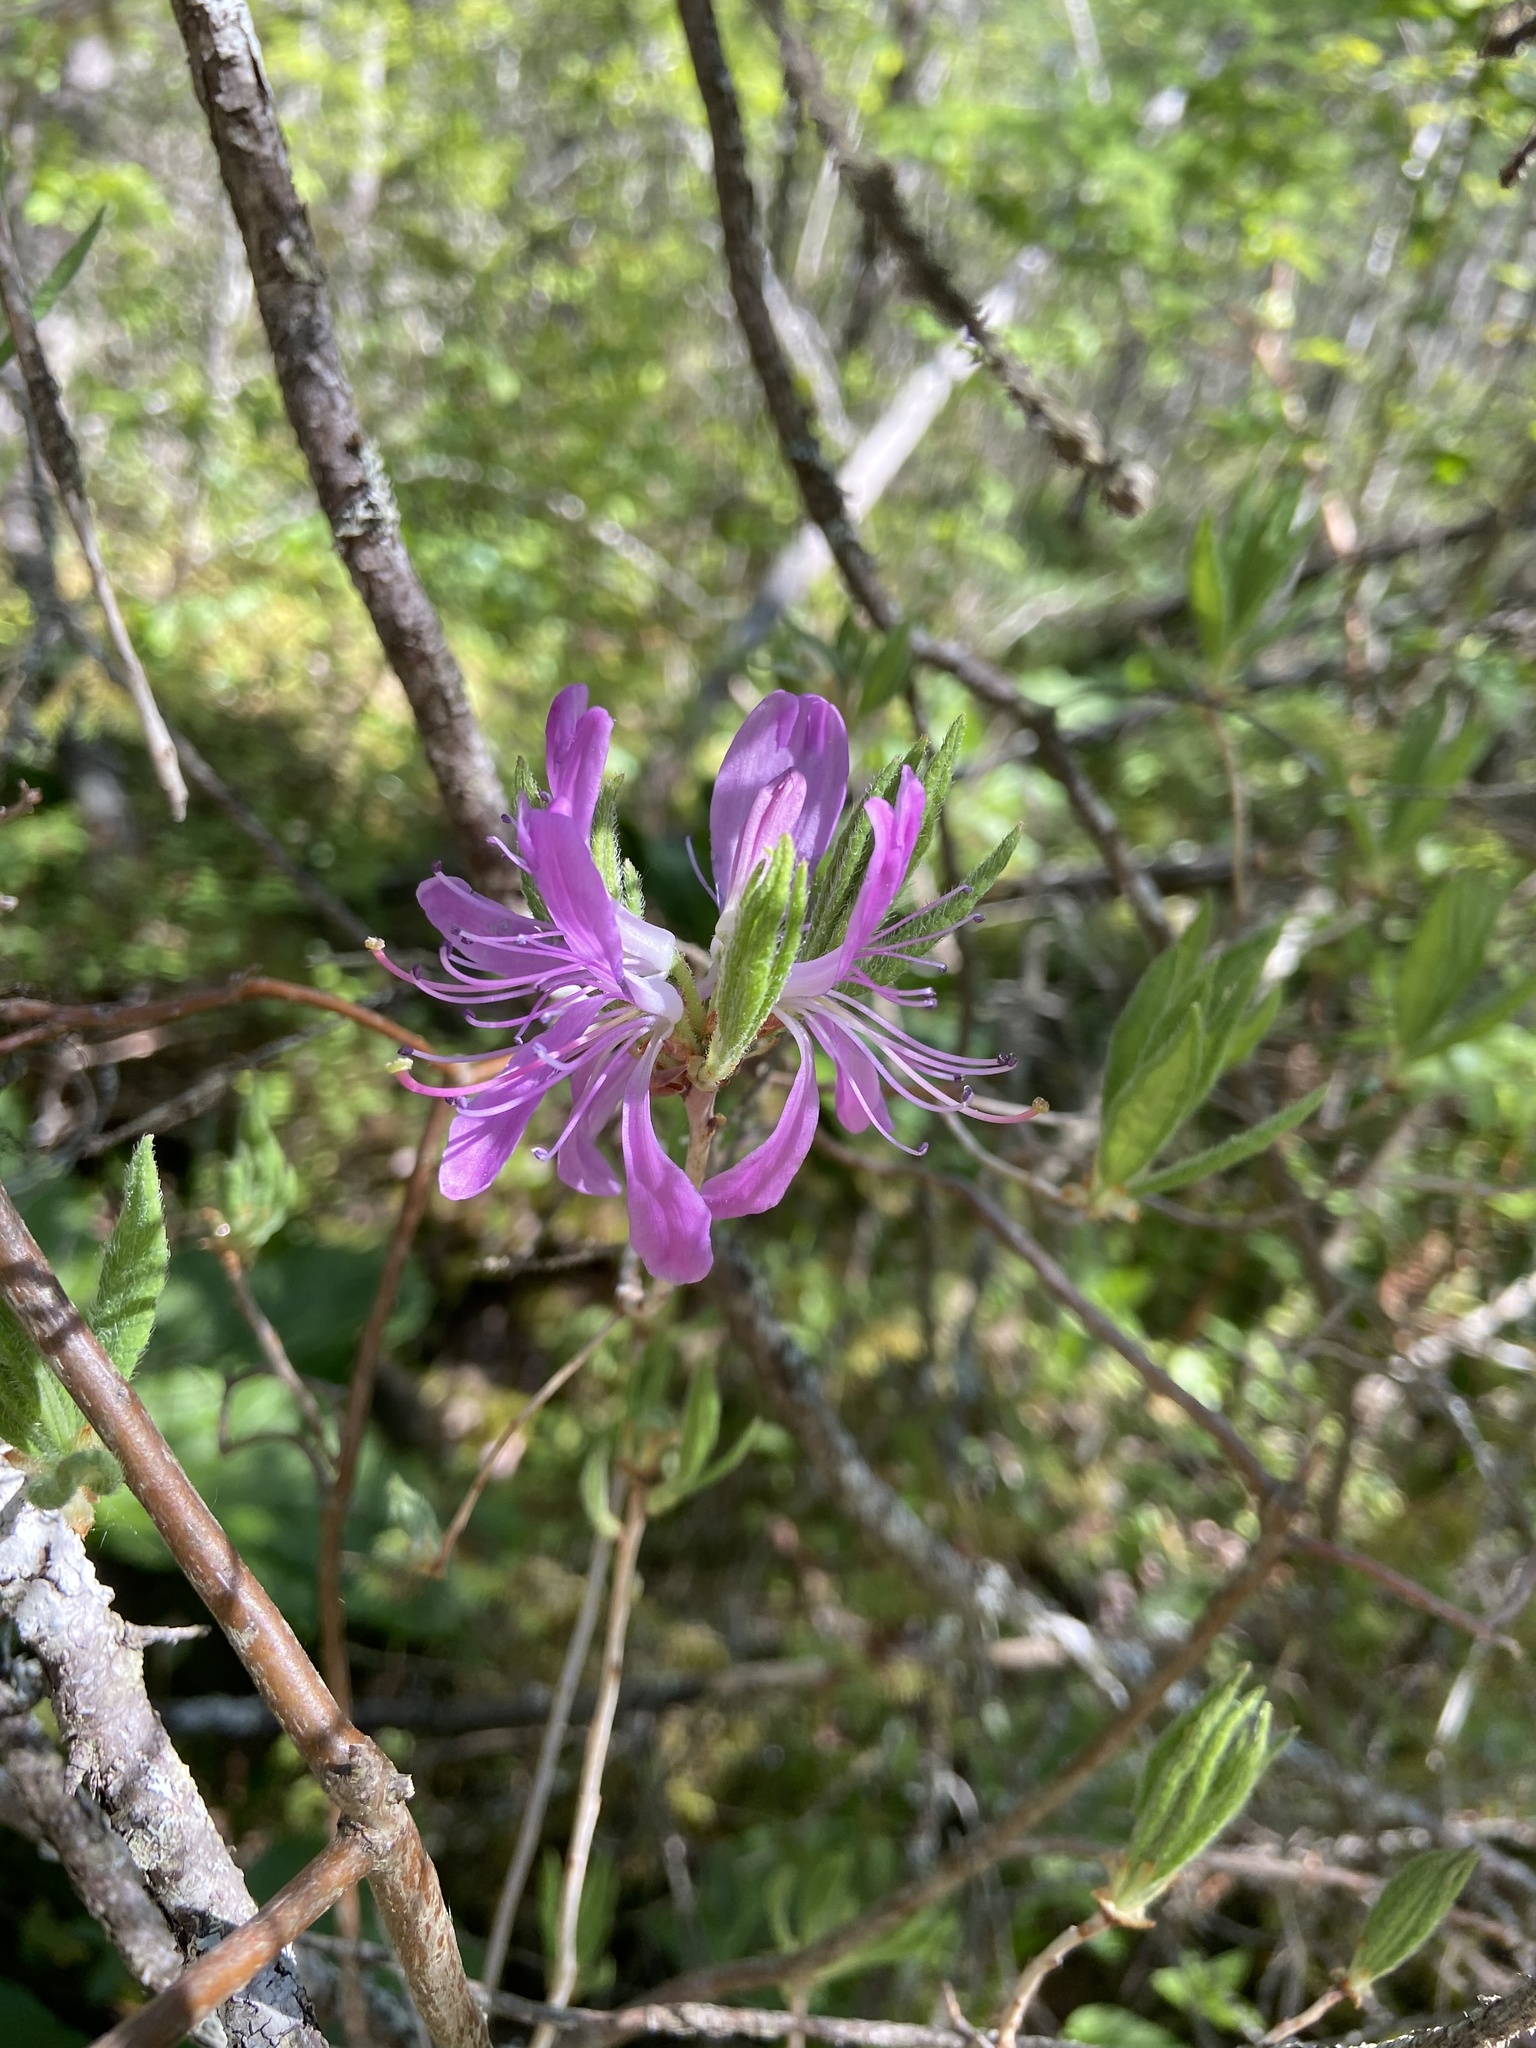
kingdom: Plantae
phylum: Tracheophyta
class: Magnoliopsida
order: Ericales
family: Ericaceae
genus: Rhododendron
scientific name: Rhododendron canadense
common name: Rhodora
